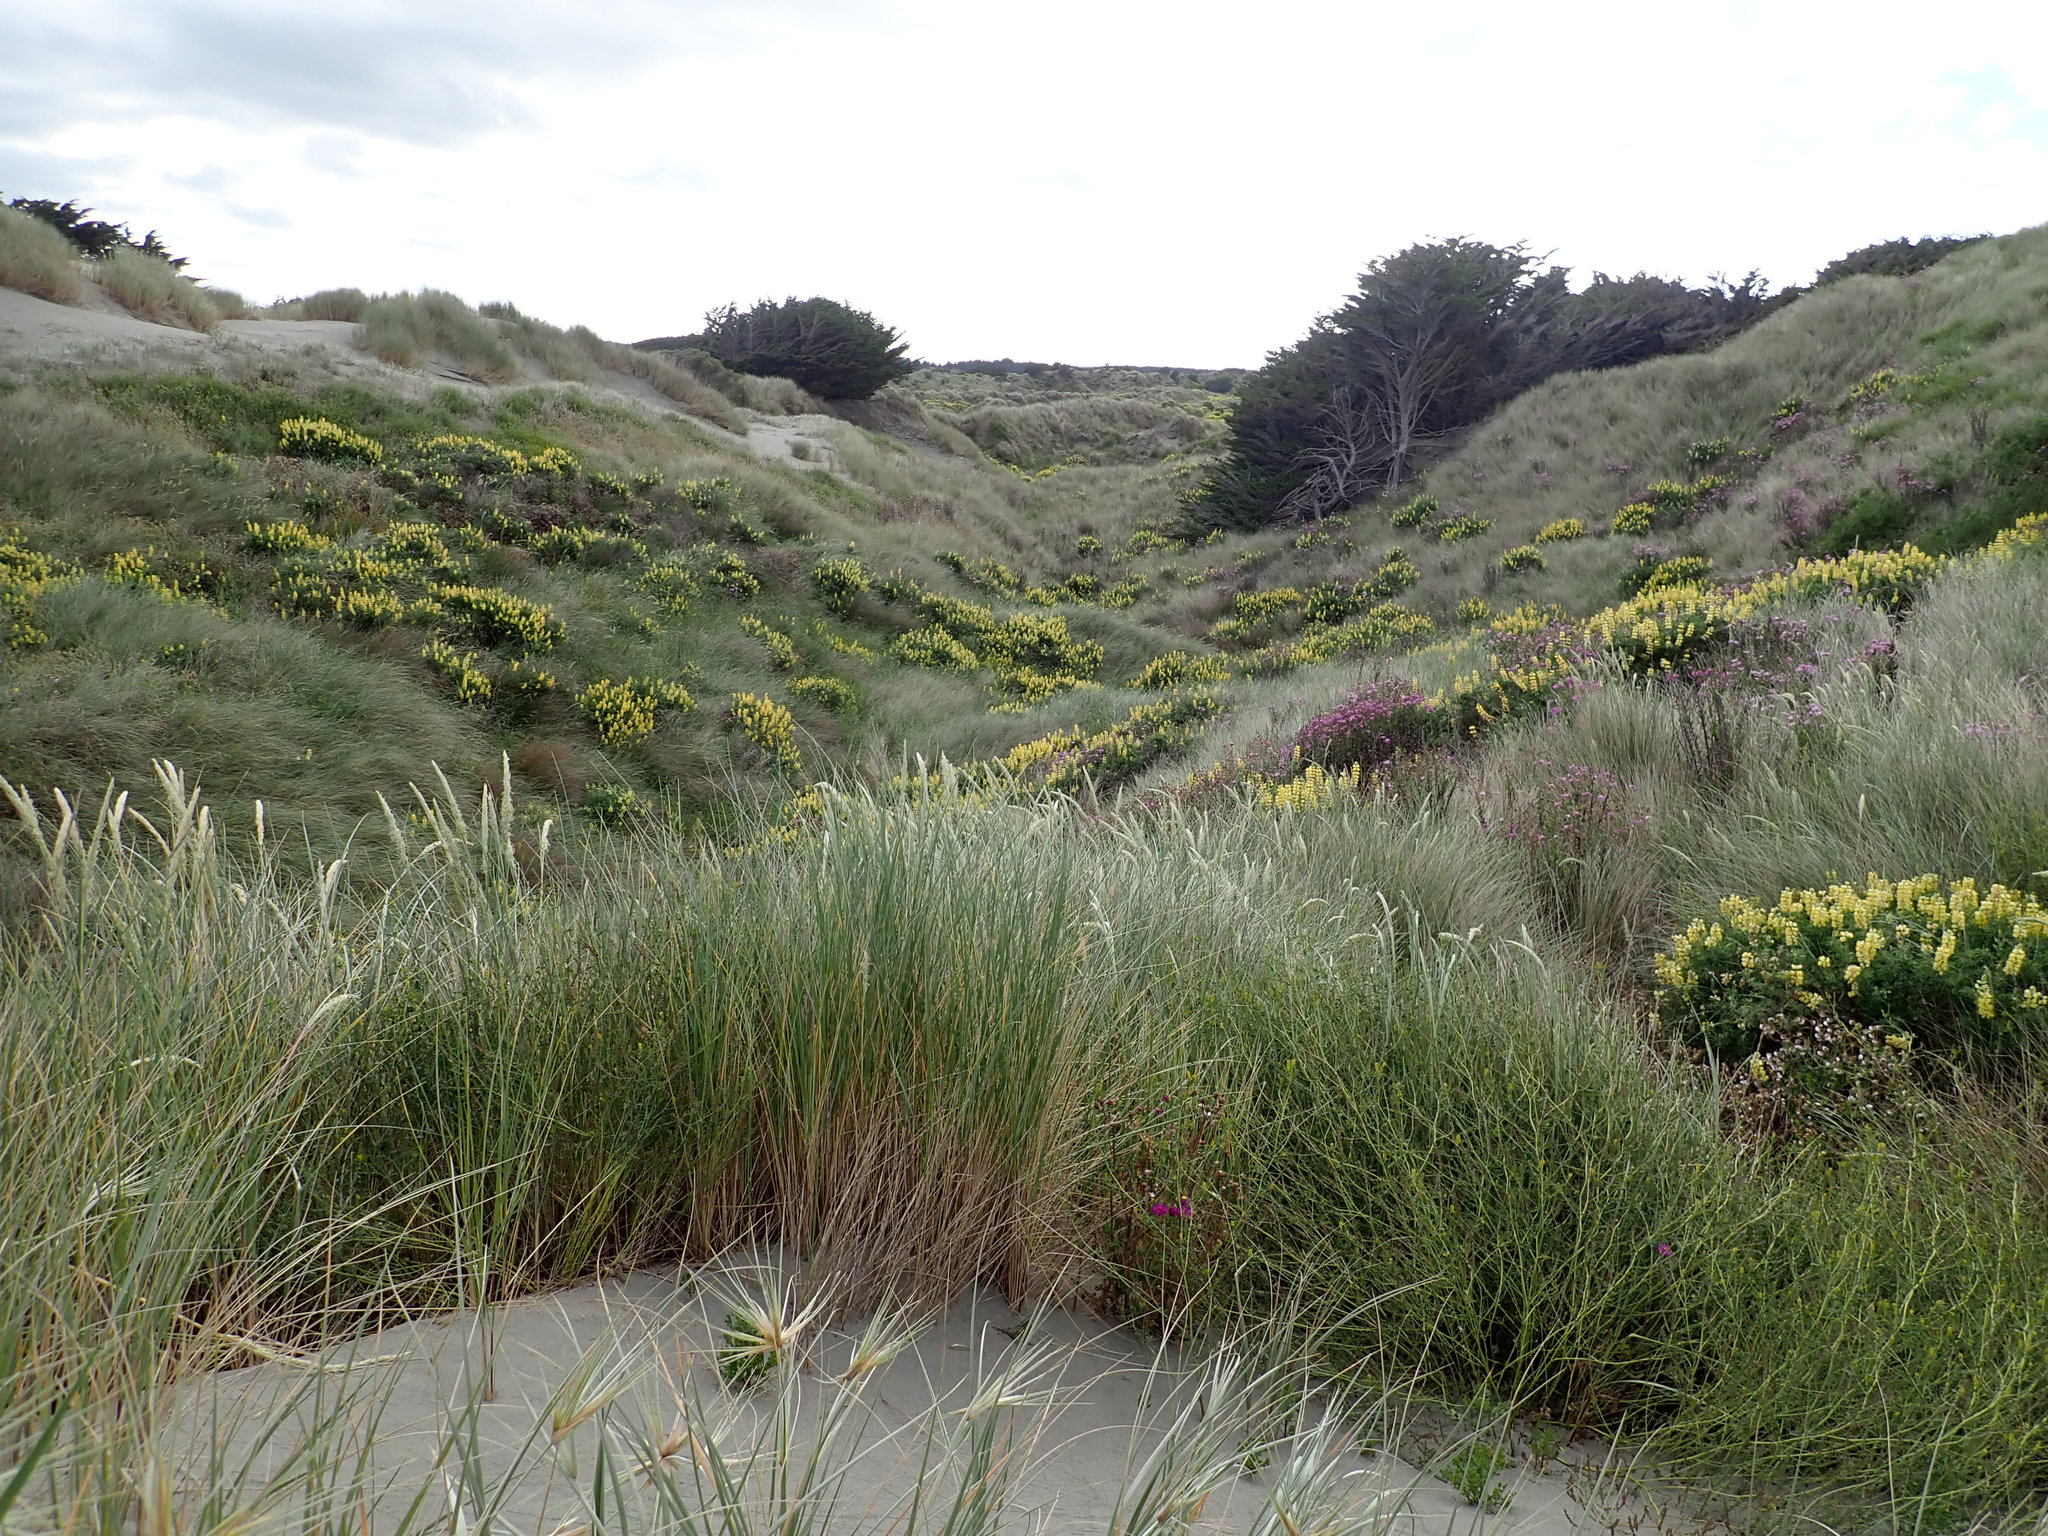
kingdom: Plantae
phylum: Tracheophyta
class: Magnoliopsida
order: Fabales
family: Fabaceae
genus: Lupinus
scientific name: Lupinus arboreus
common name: Yellow bush lupine
